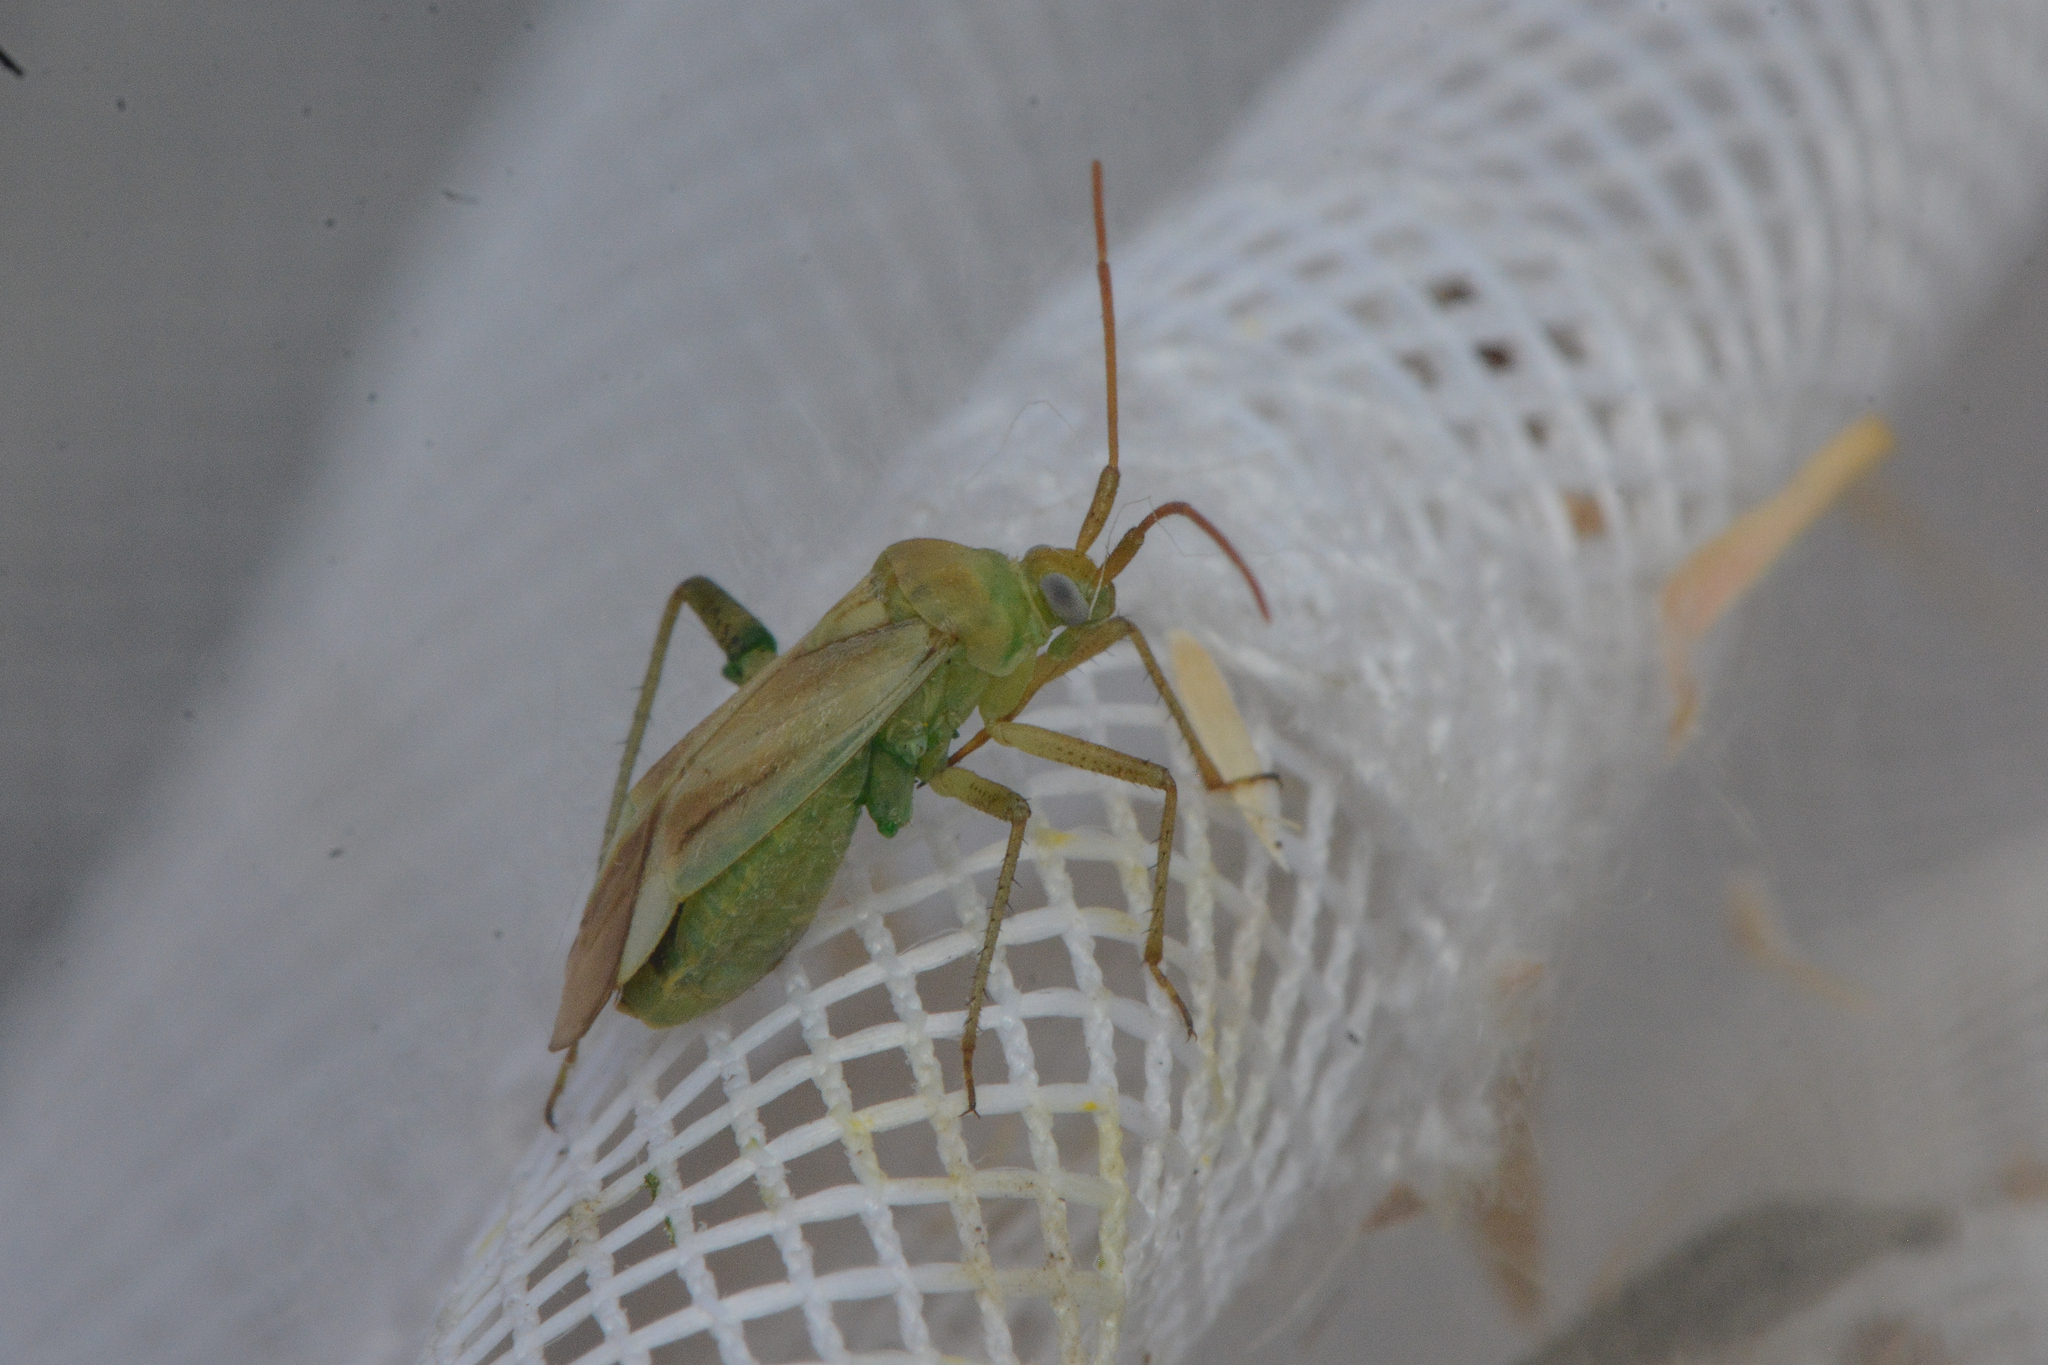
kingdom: Animalia
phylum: Arthropoda
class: Insecta
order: Hemiptera
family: Miridae
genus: Adelphocoris
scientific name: Adelphocoris lineolatus
